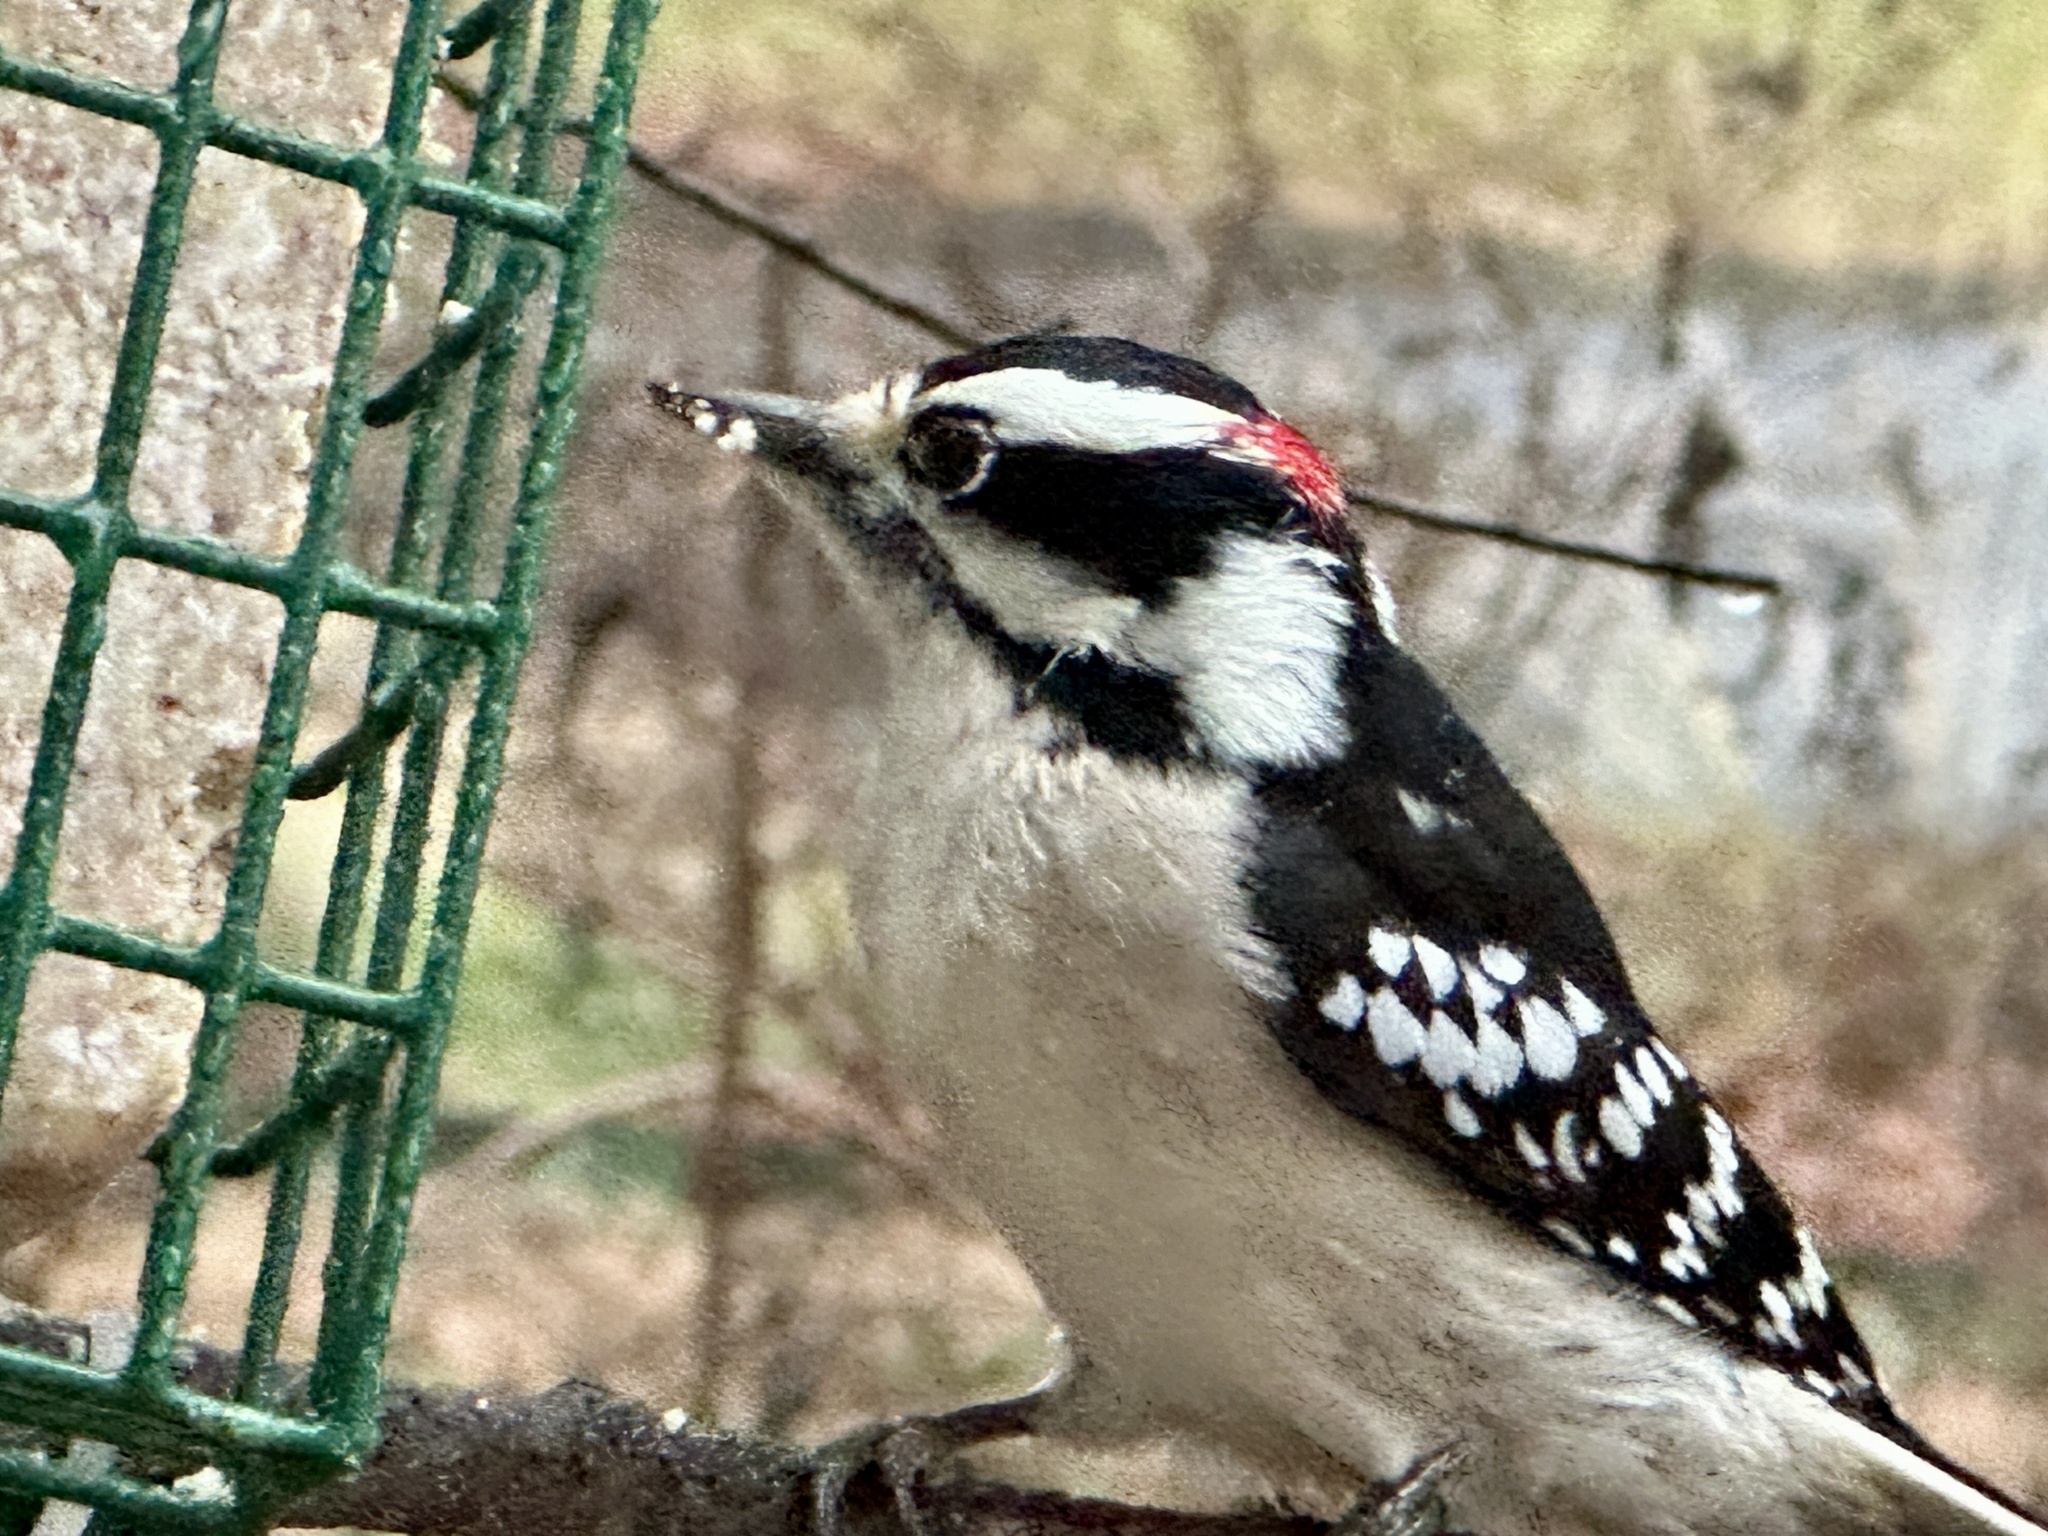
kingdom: Animalia
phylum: Chordata
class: Aves
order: Piciformes
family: Picidae
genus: Dryobates
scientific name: Dryobates pubescens
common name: Downy woodpecker
